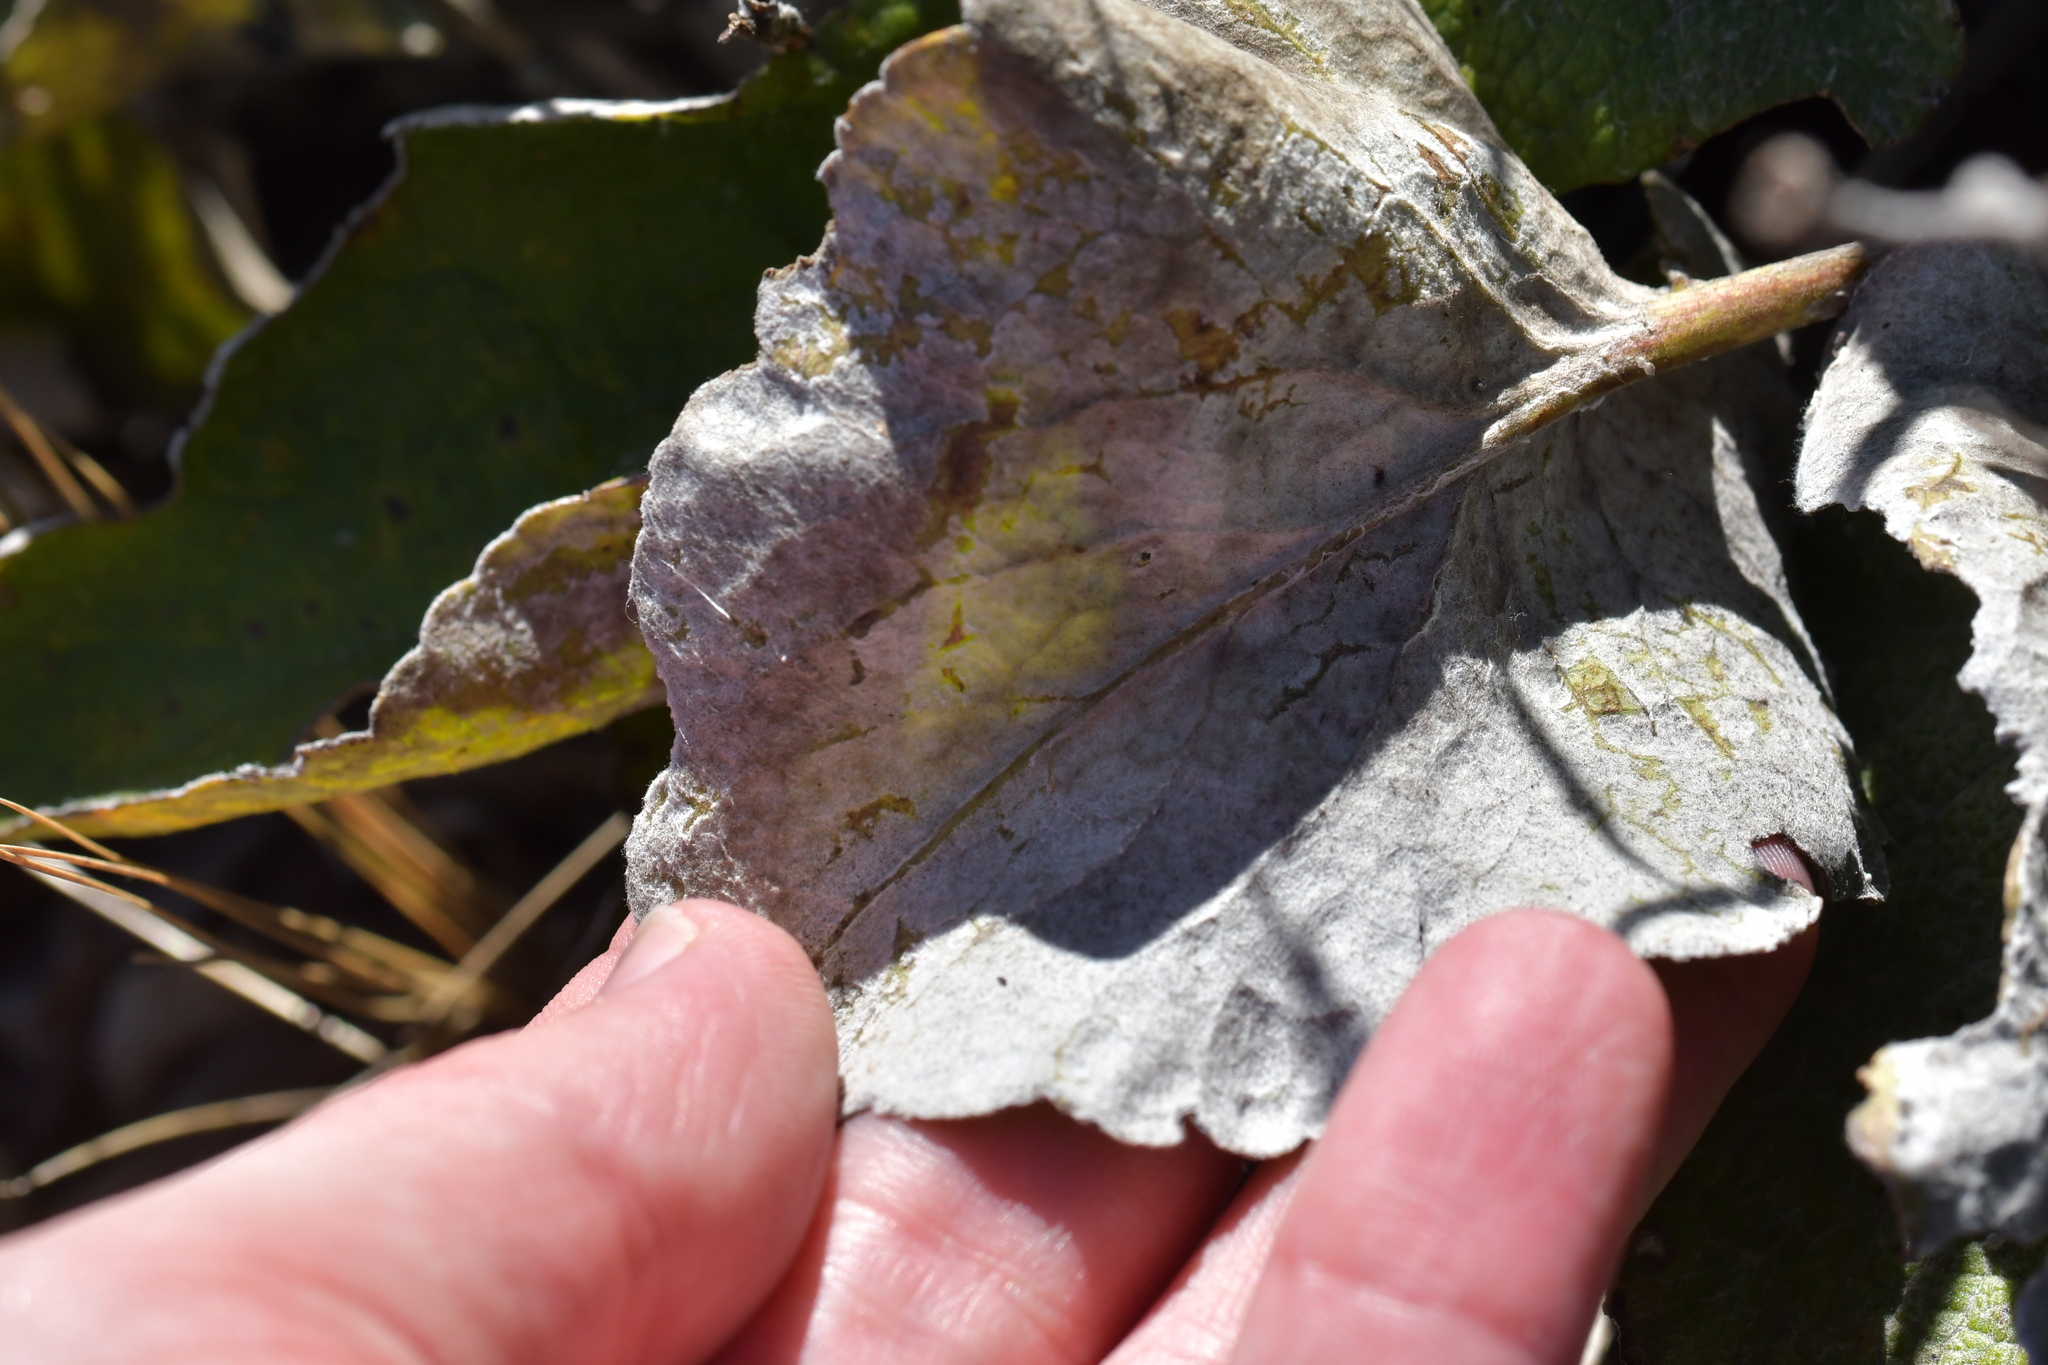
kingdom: Plantae
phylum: Tracheophyta
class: Magnoliopsida
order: Asterales
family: Asteraceae
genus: Brachyglottis
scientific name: Brachyglottis southlandica
